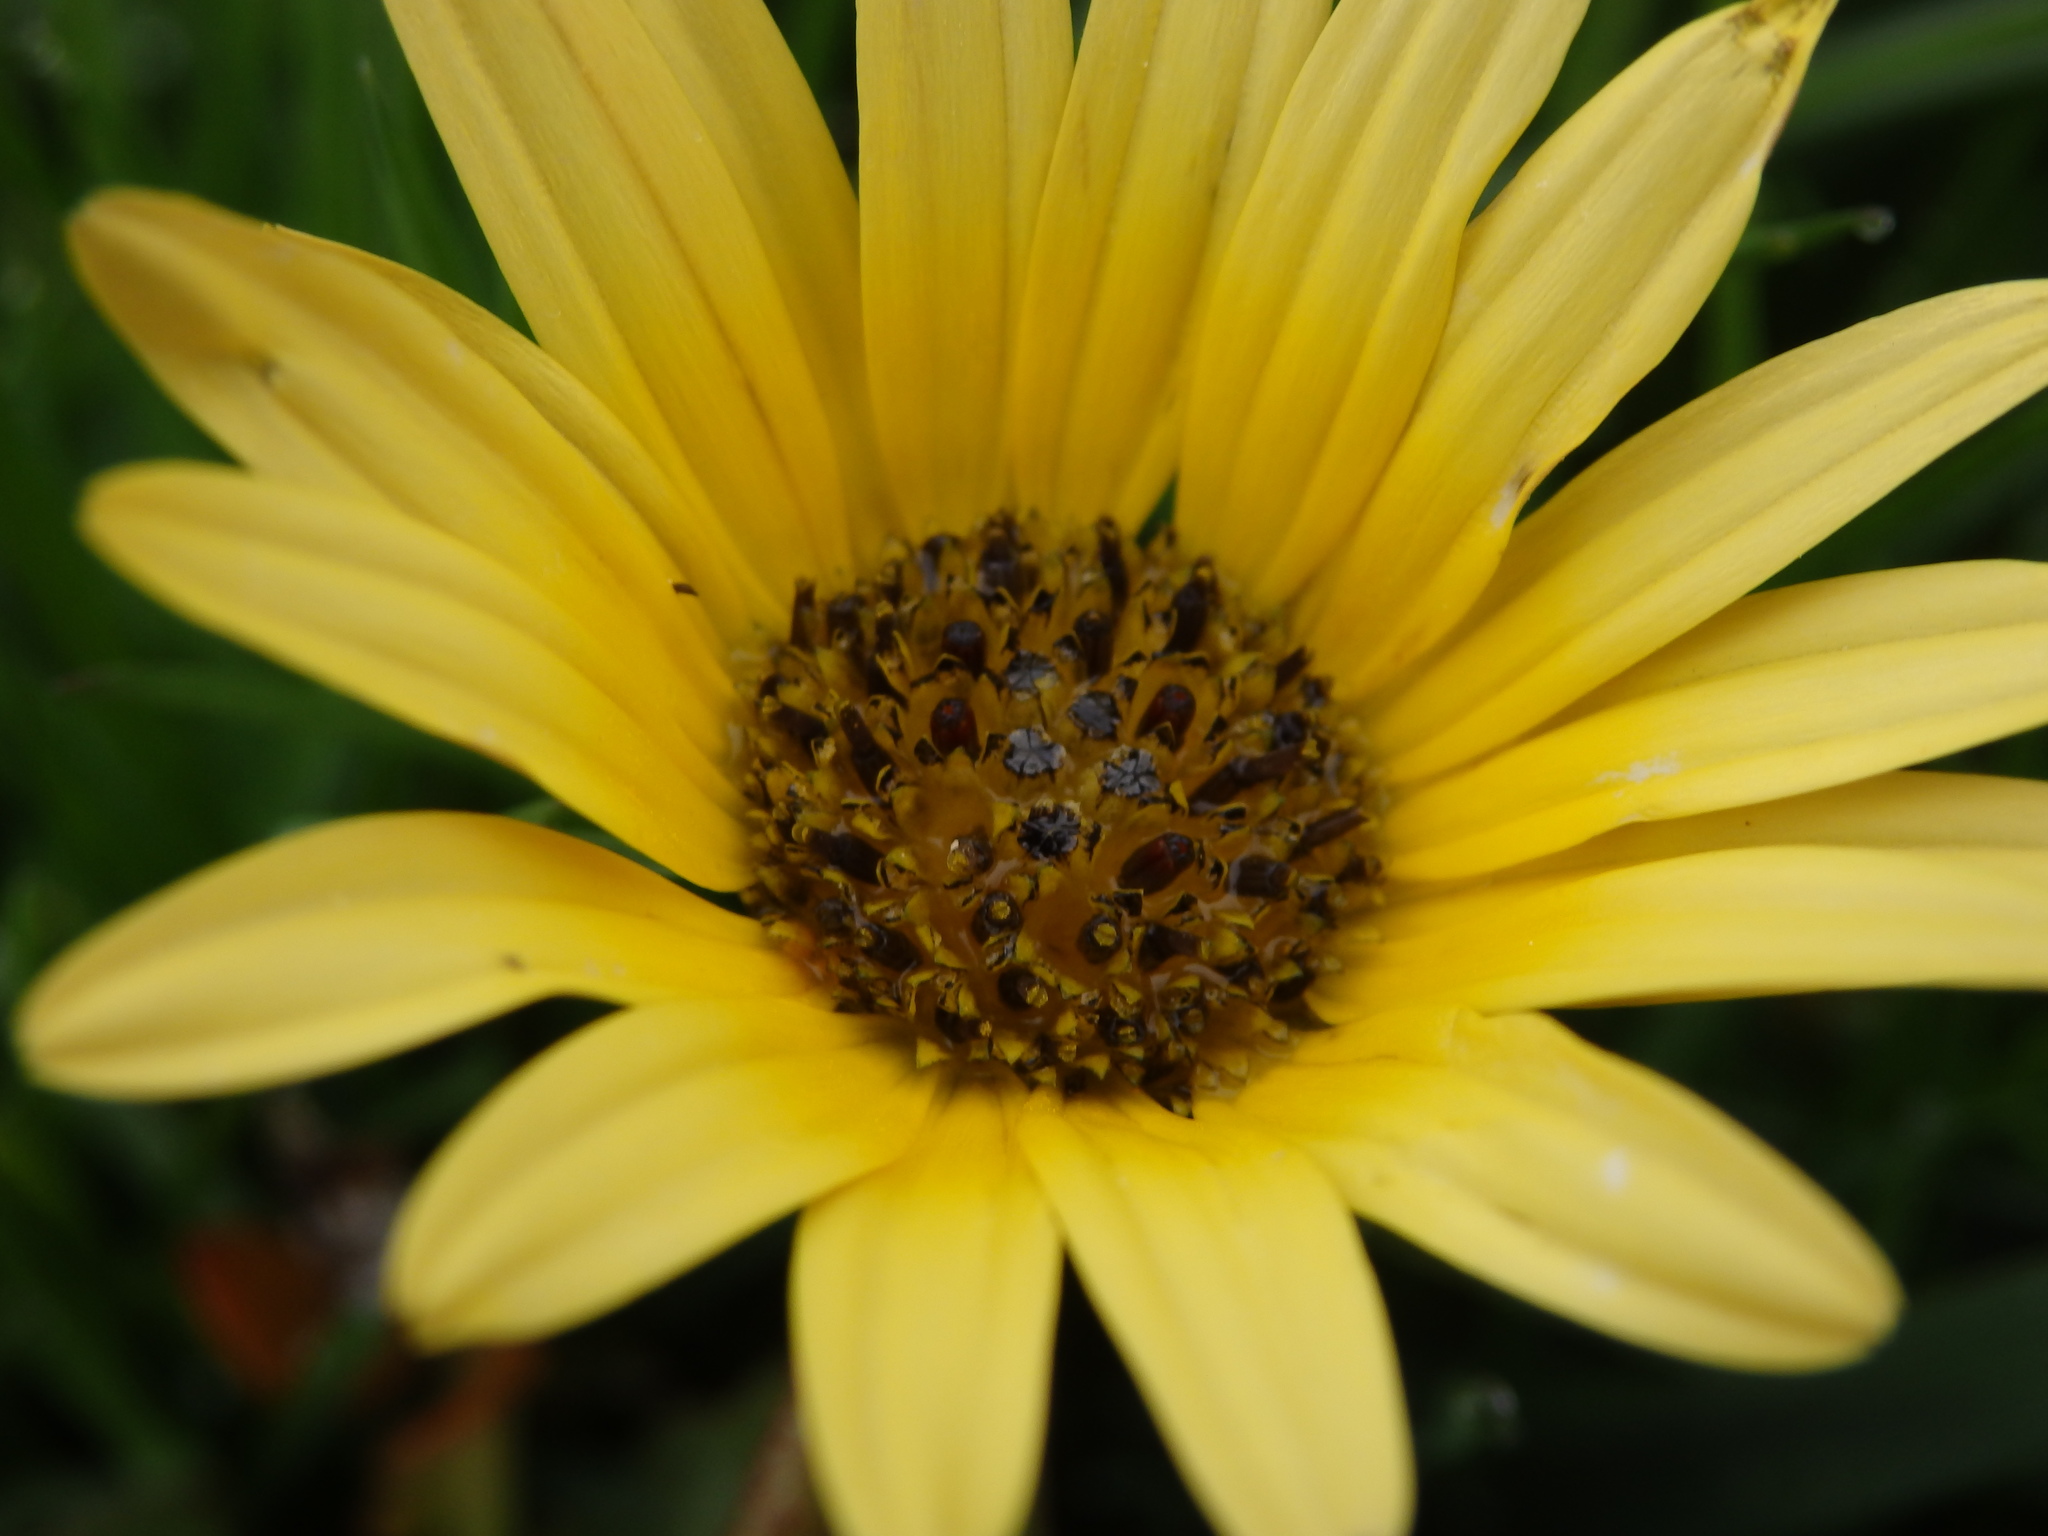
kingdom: Plantae
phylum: Tracheophyta
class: Magnoliopsida
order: Asterales
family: Asteraceae
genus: Arctotheca
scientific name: Arctotheca calendula
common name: Capeweed
